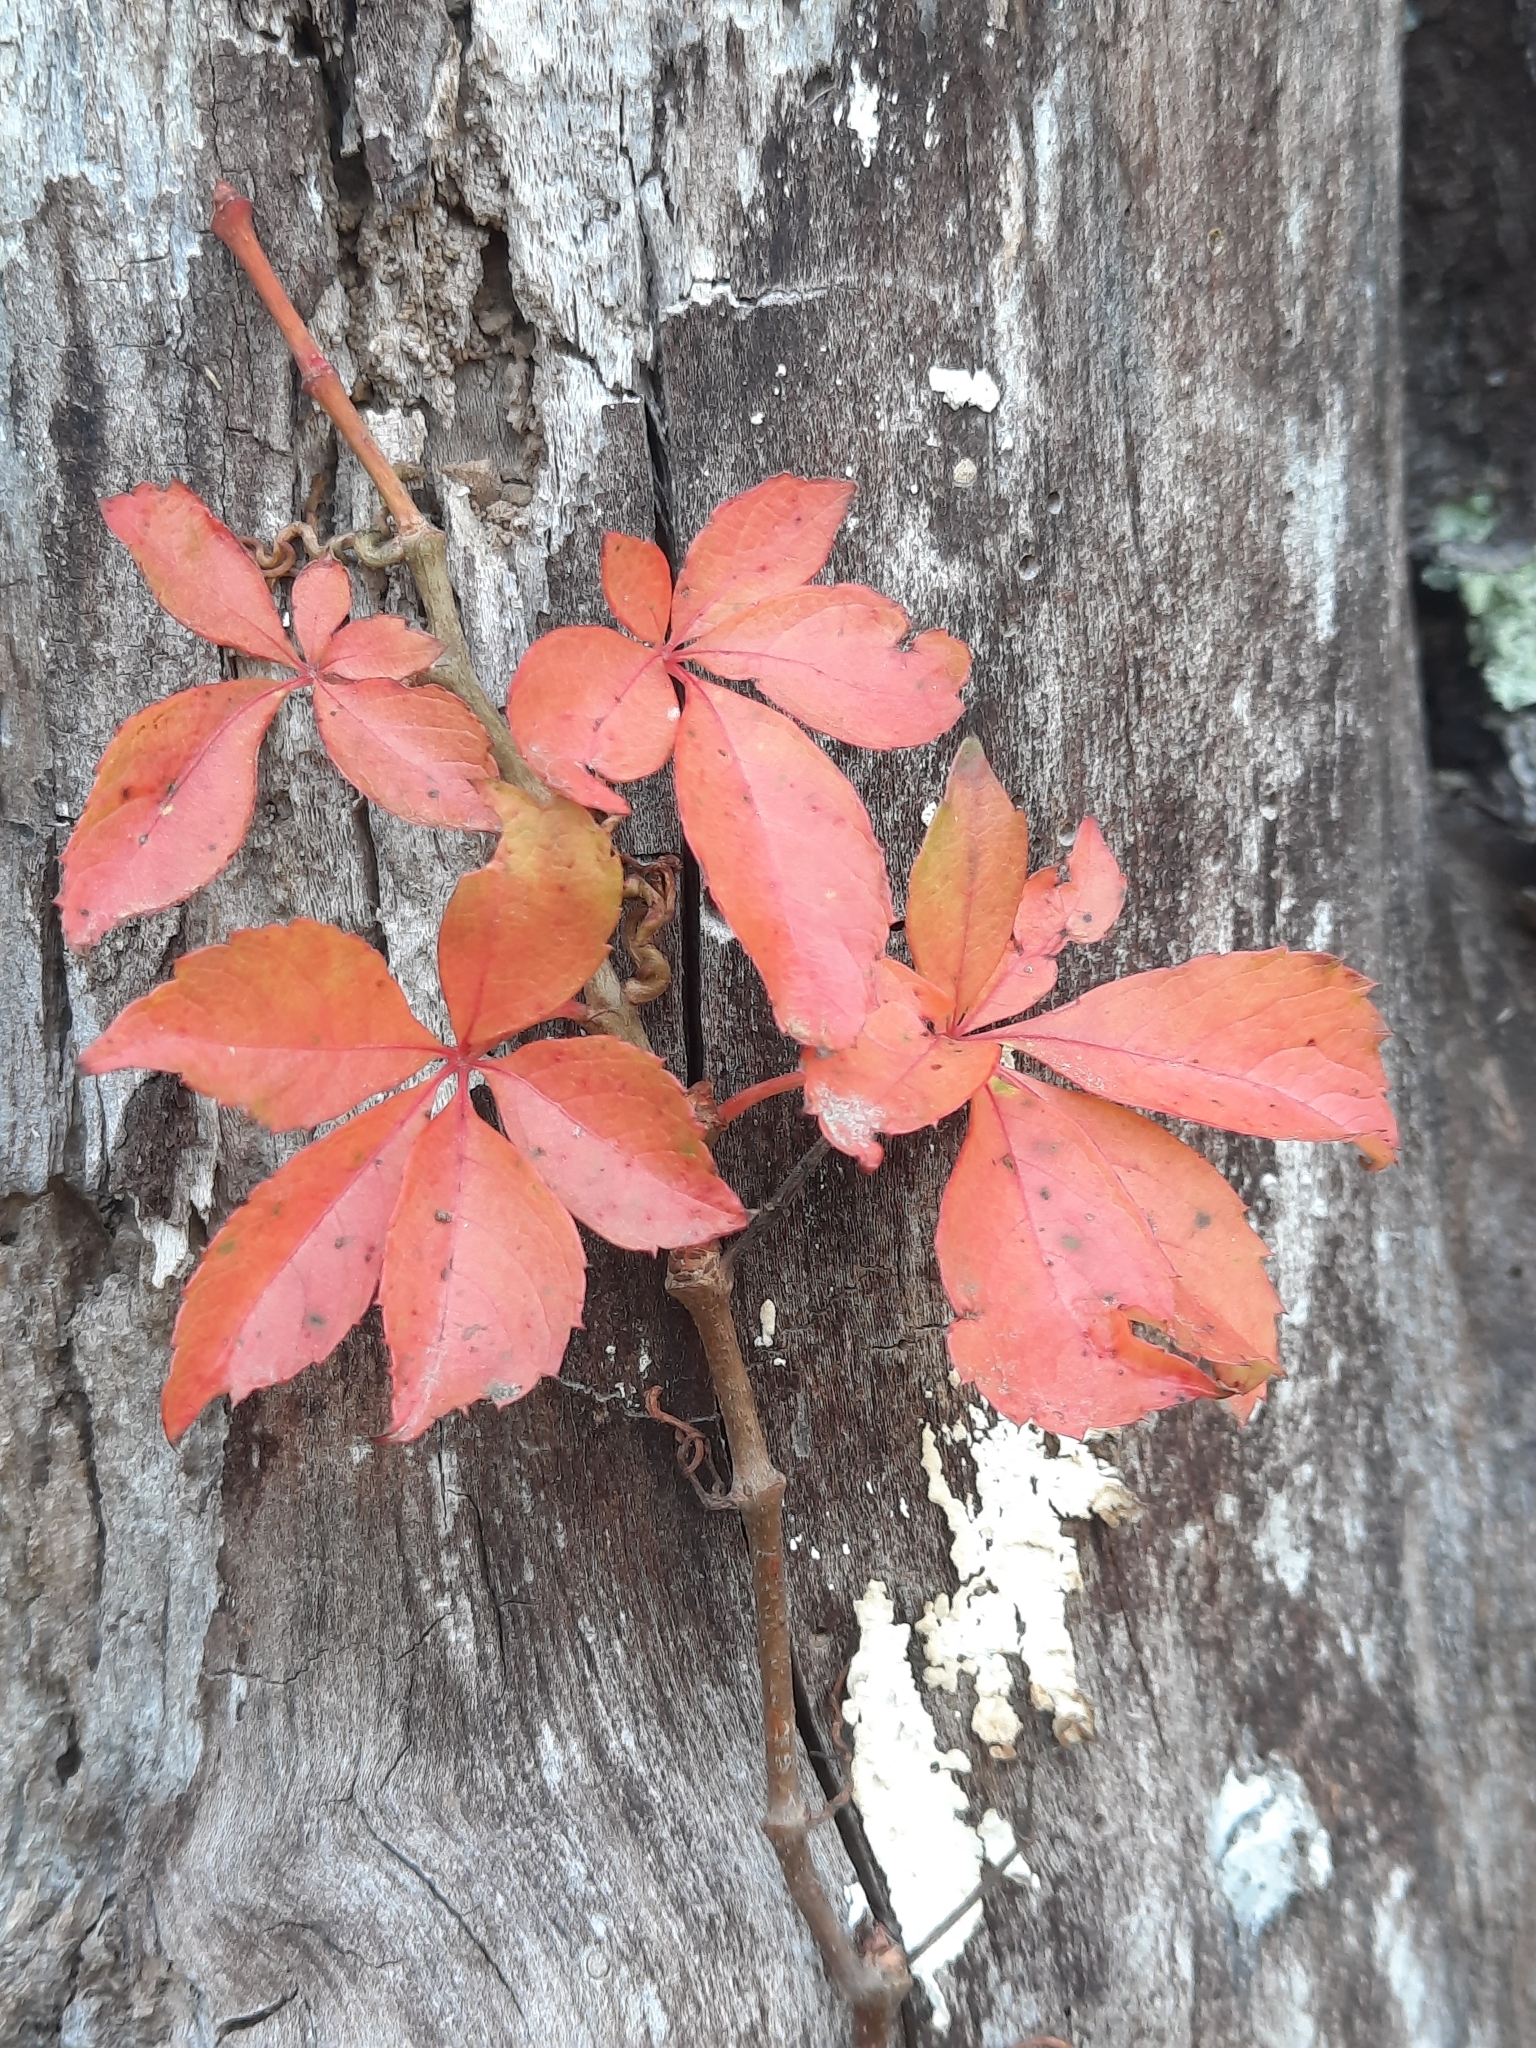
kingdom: Plantae
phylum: Tracheophyta
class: Magnoliopsida
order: Vitales
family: Vitaceae
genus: Parthenocissus
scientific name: Parthenocissus quinquefolia
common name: Virginia-creeper
